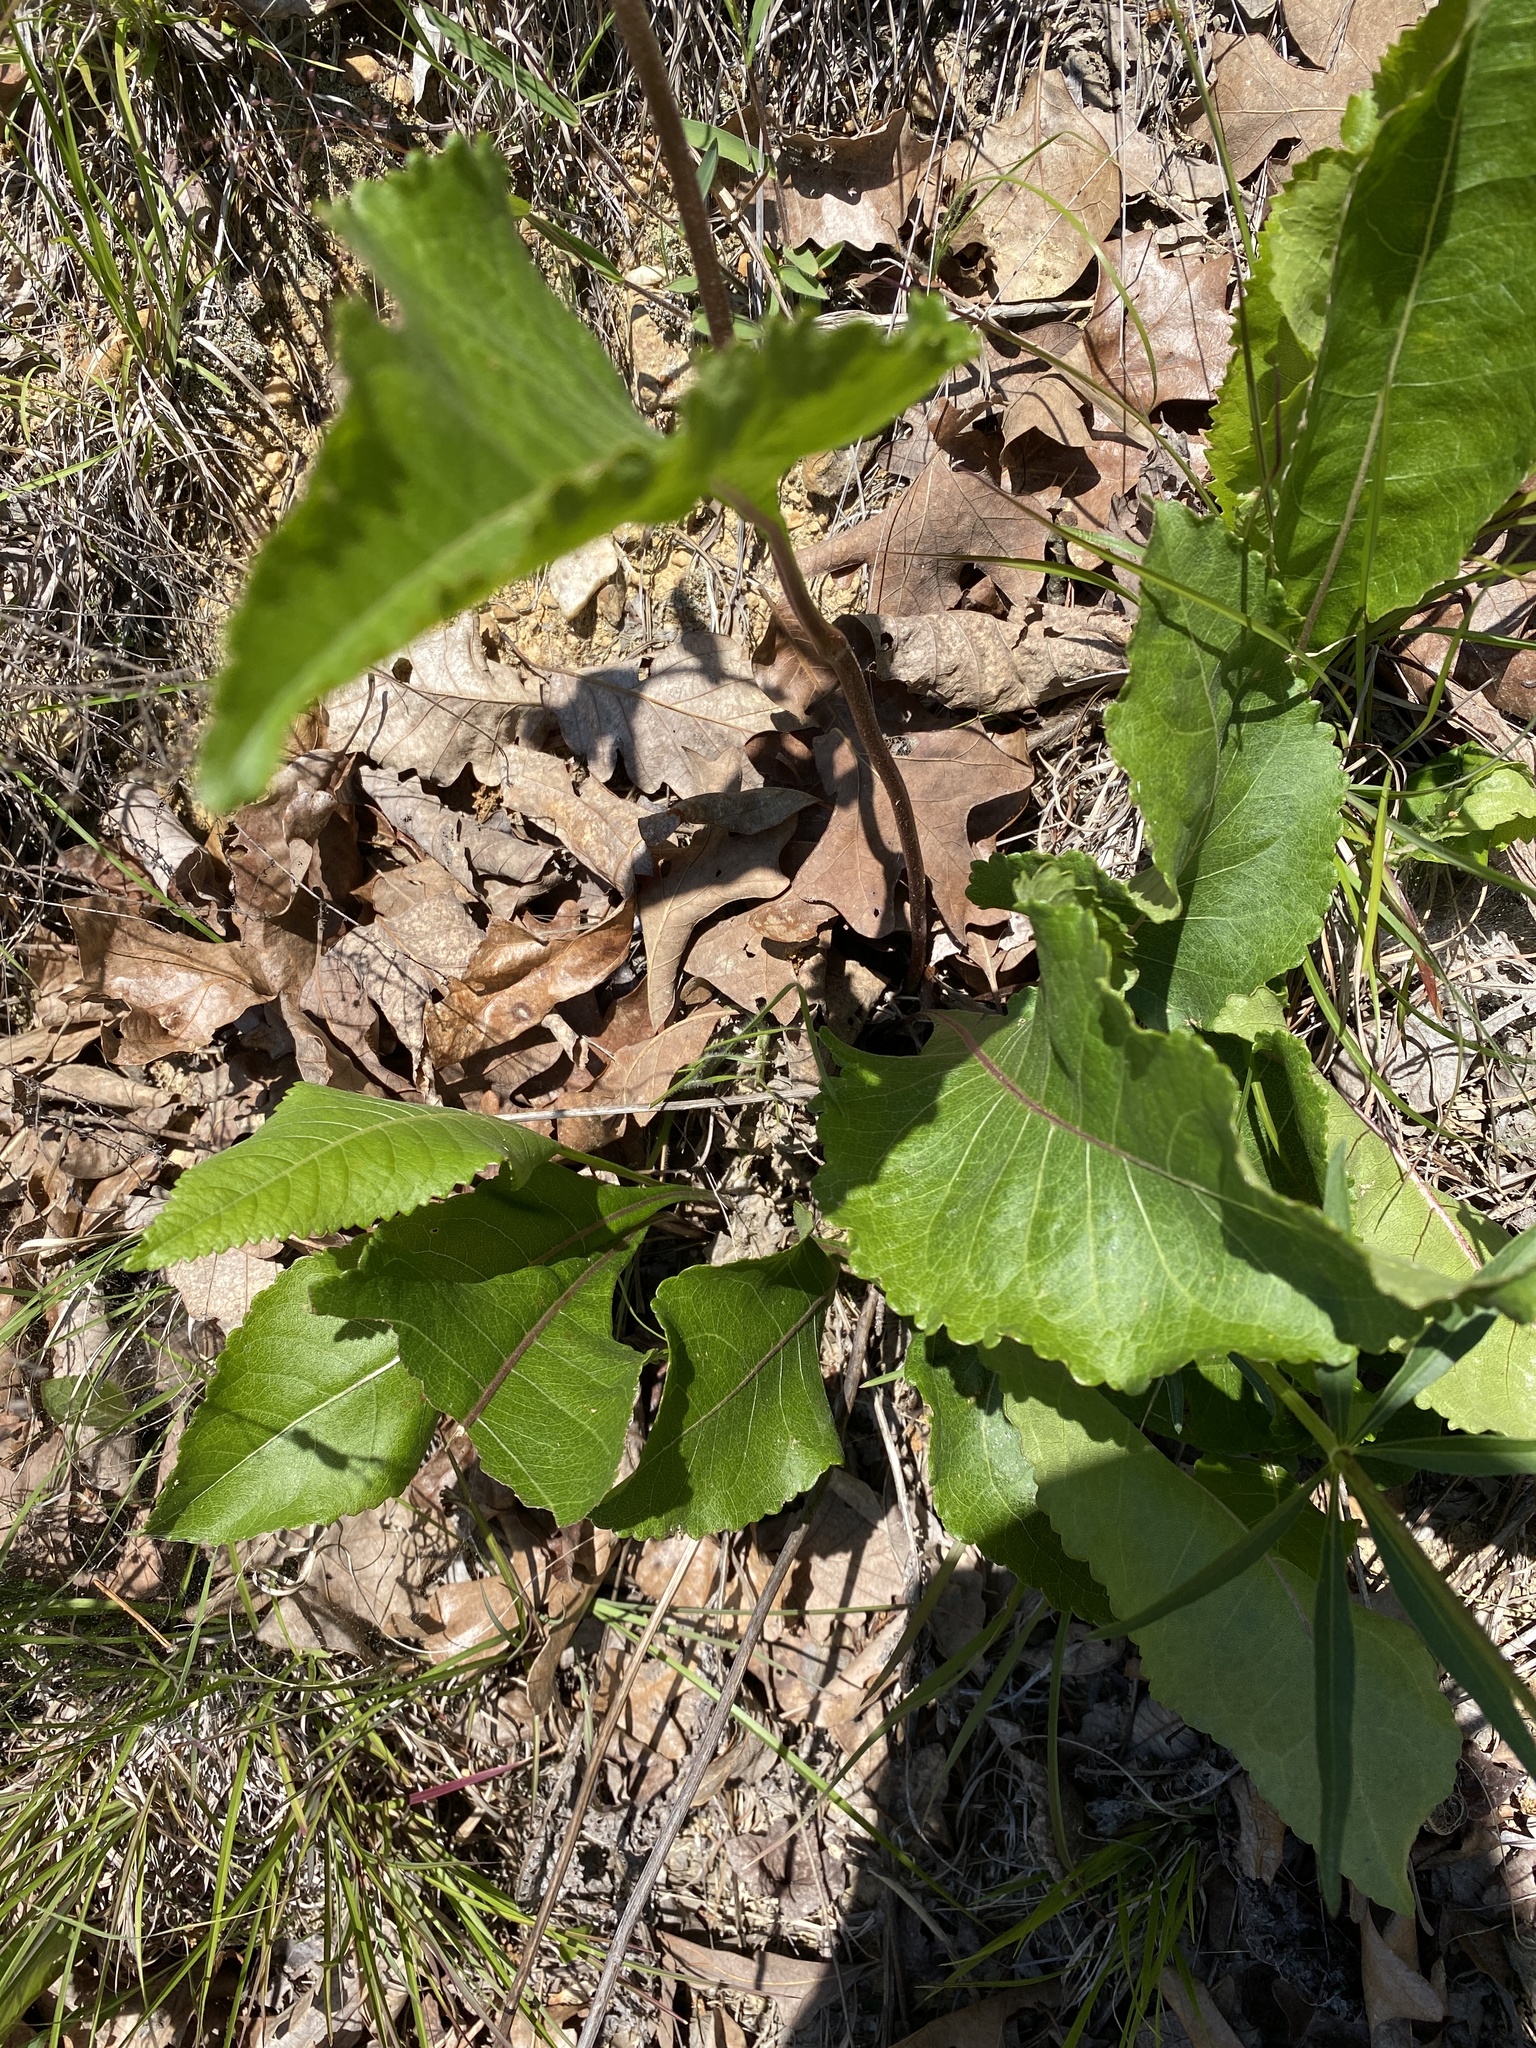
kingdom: Plantae
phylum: Tracheophyta
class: Magnoliopsida
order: Asterales
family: Asteraceae
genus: Parthenium
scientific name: Parthenium integrifolium
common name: American feverfew
